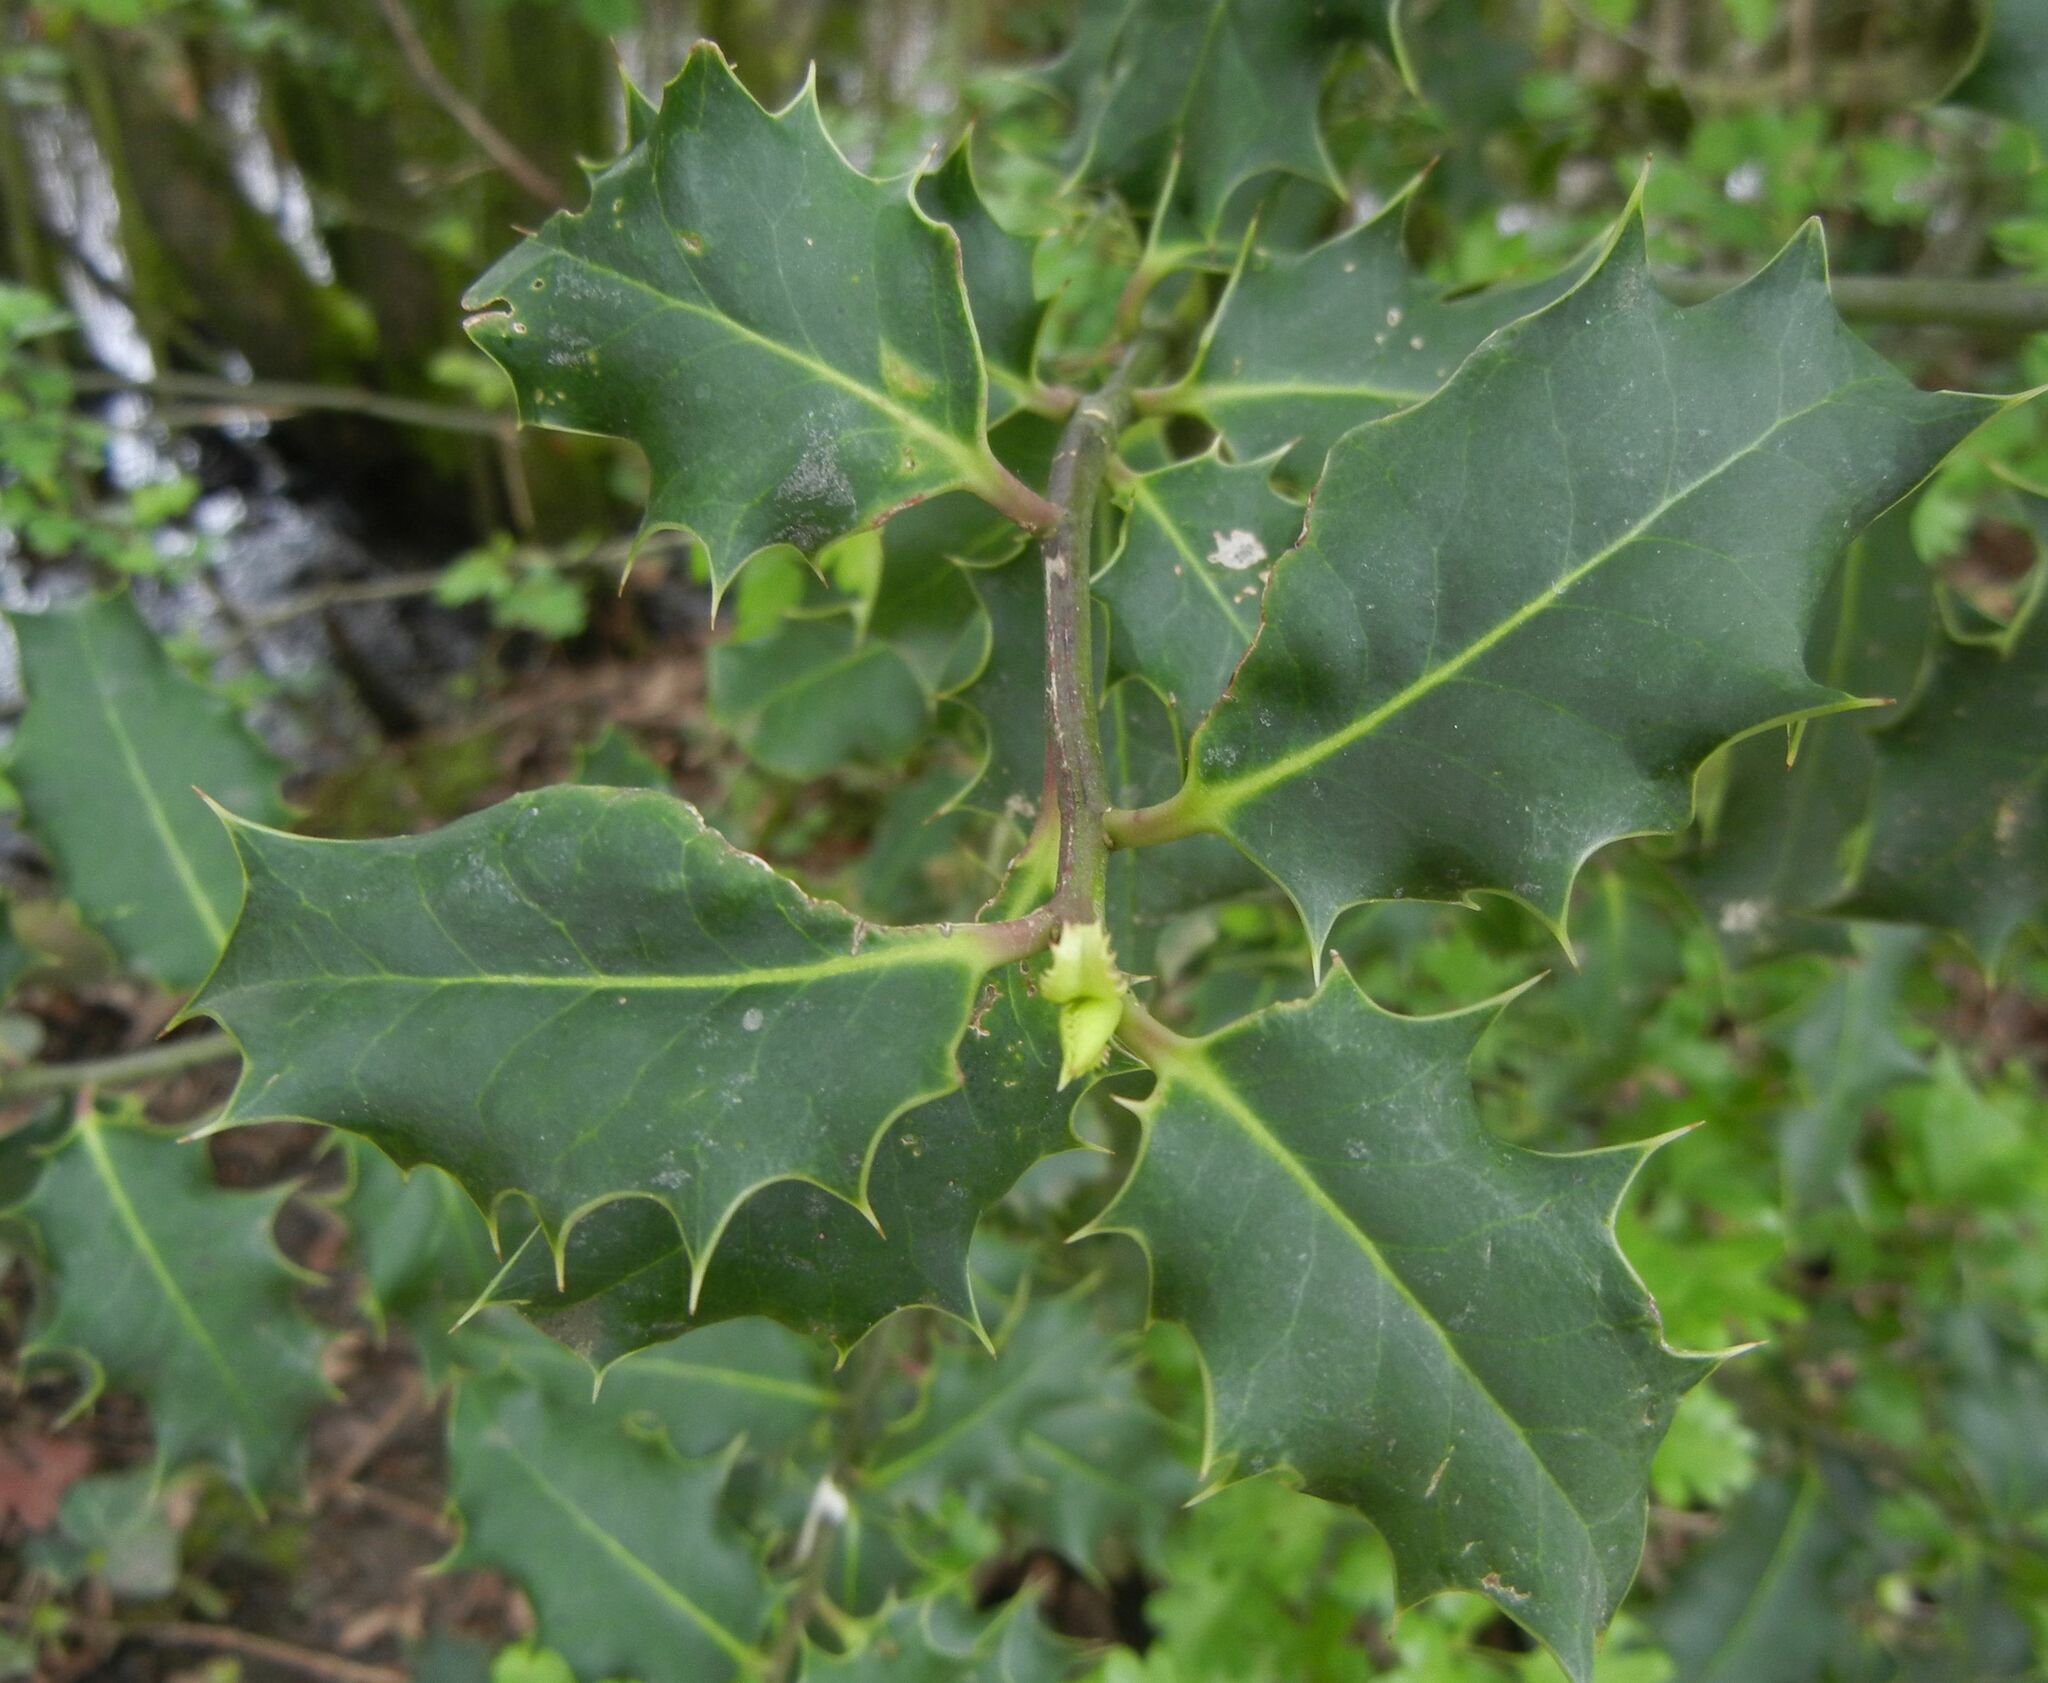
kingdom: Plantae
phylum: Tracheophyta
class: Magnoliopsida
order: Aquifoliales
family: Aquifoliaceae
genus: Ilex
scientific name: Ilex aquifolium
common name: English holly
